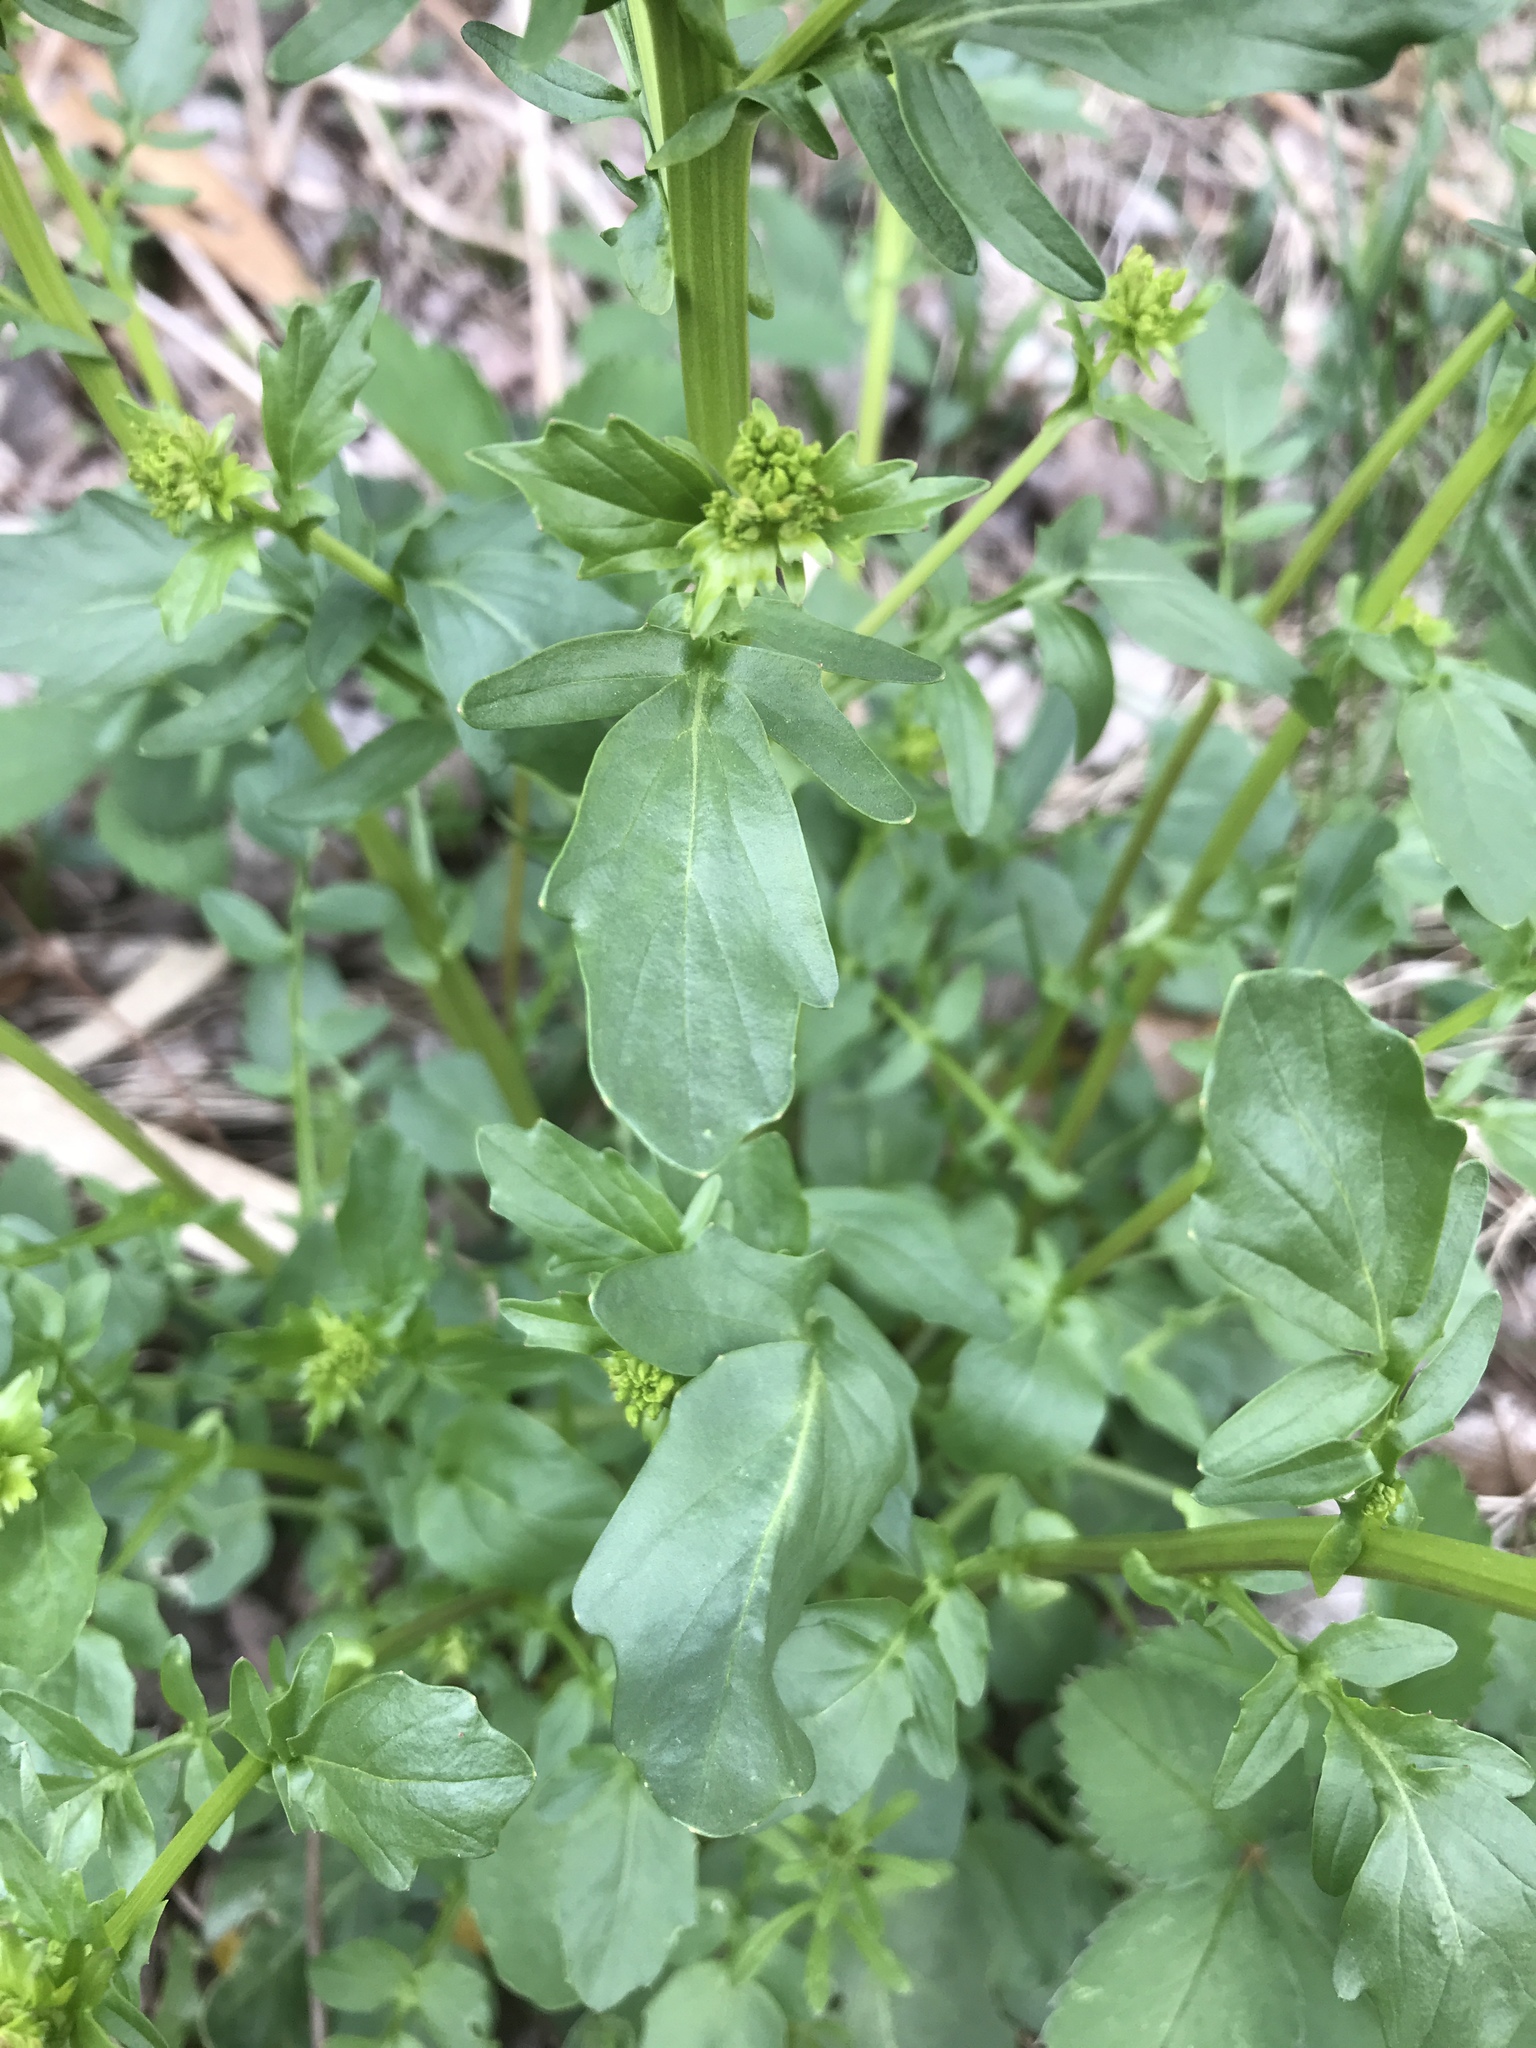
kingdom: Plantae
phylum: Tracheophyta
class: Magnoliopsida
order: Brassicales
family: Brassicaceae
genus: Barbarea
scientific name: Barbarea vulgaris
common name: Cressy-greens
